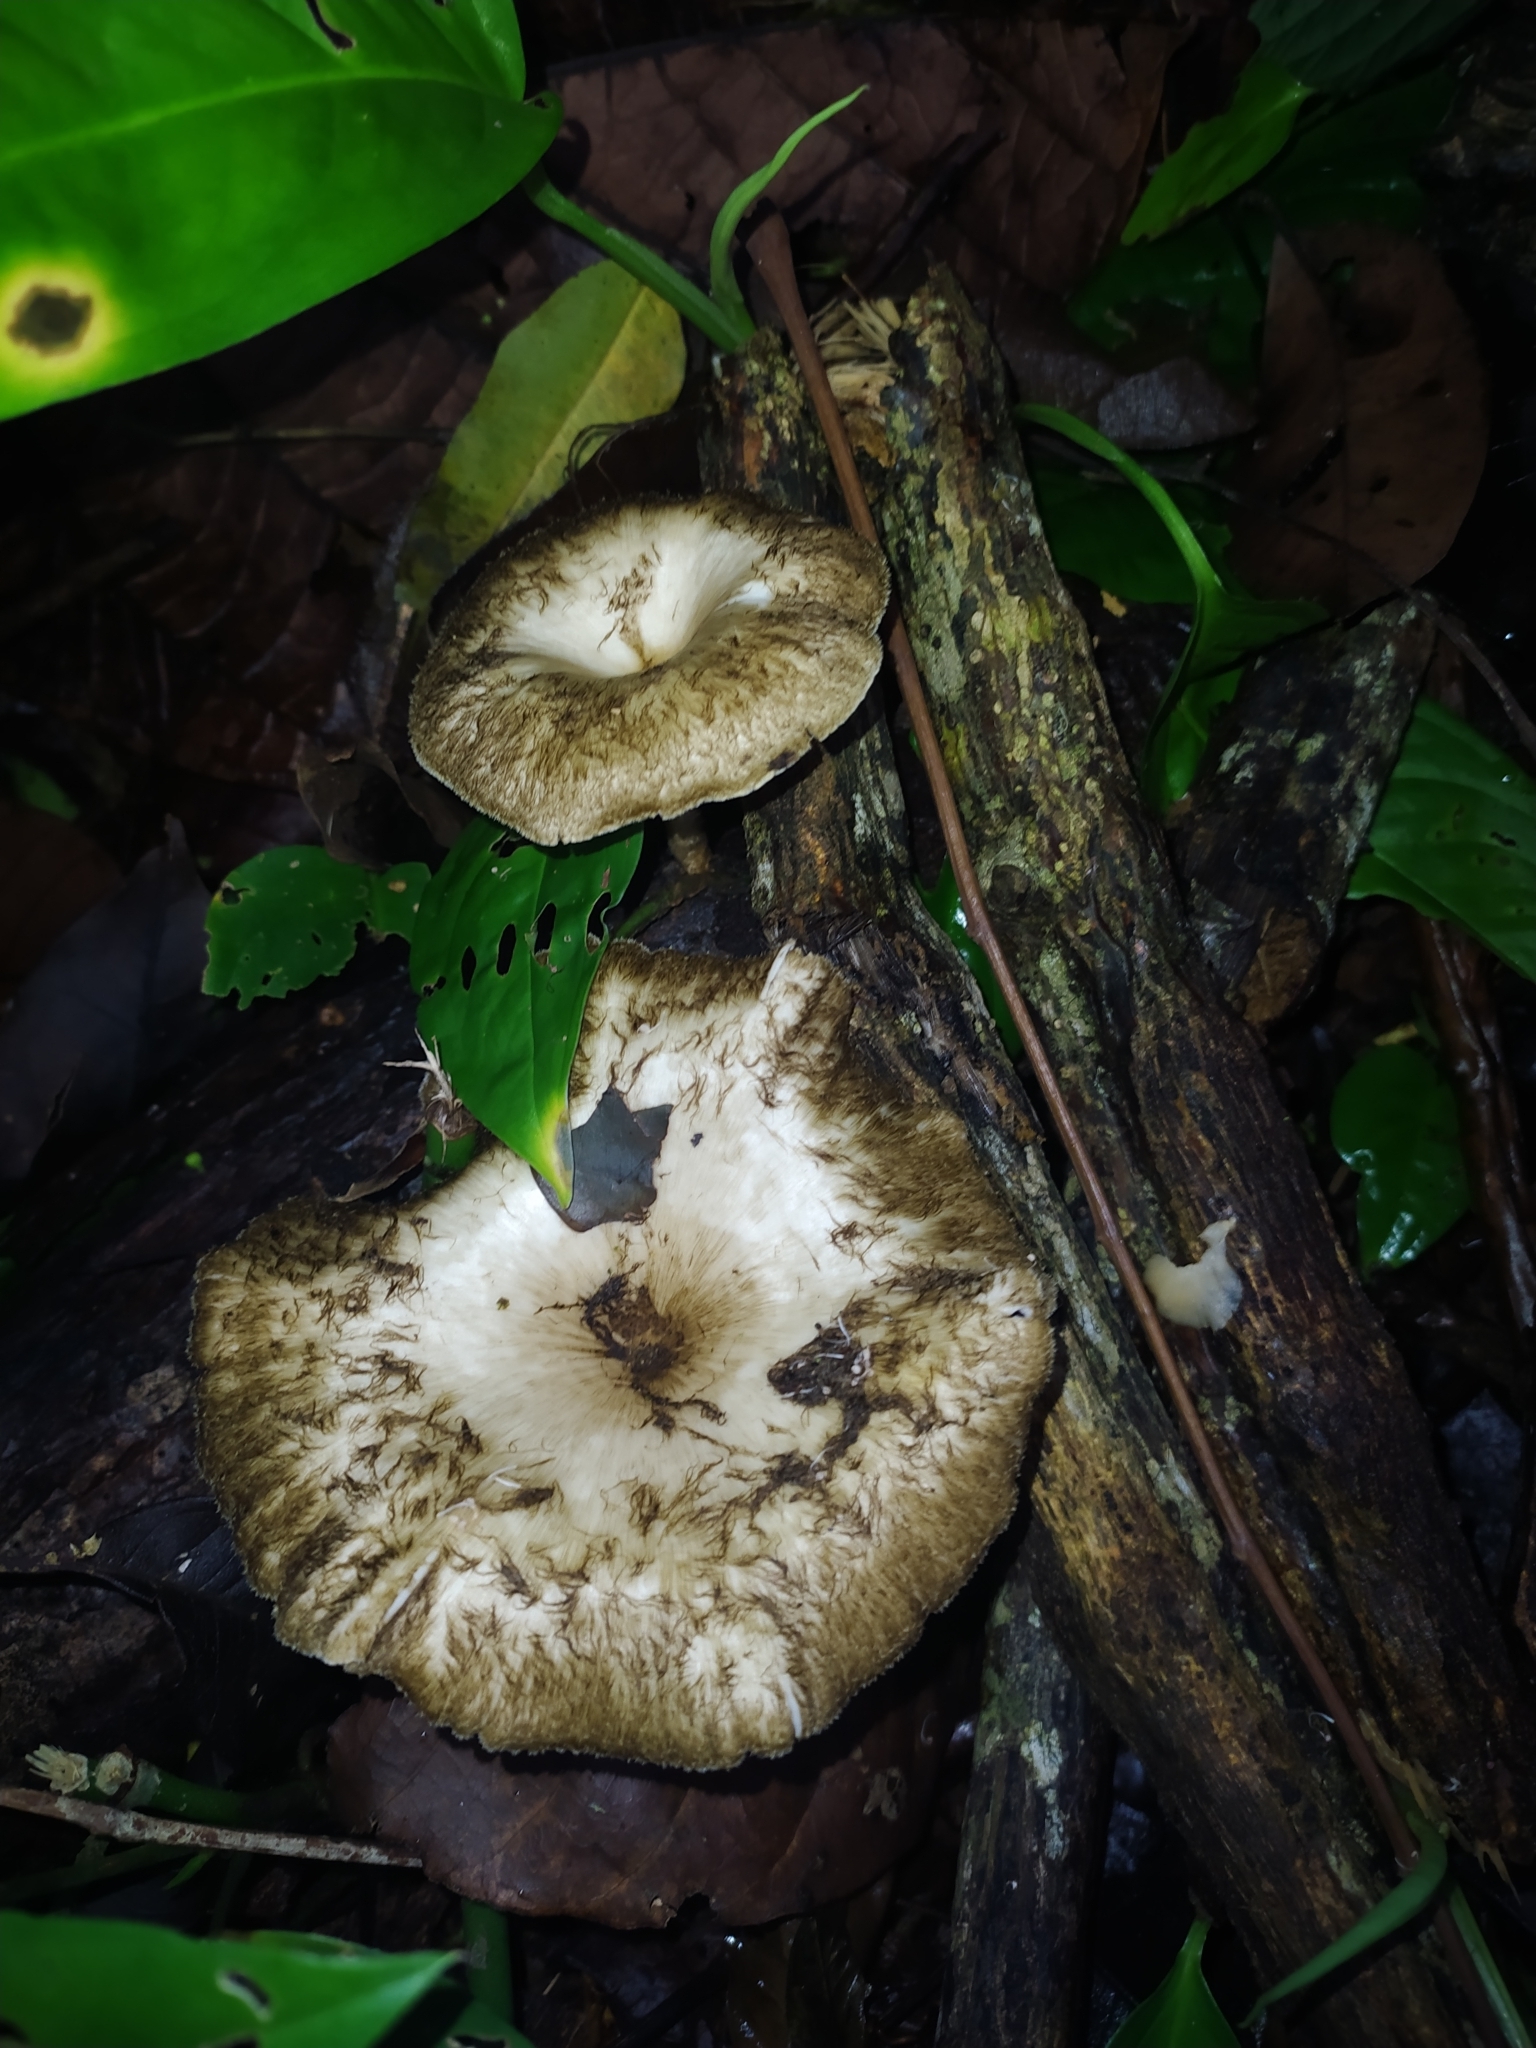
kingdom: Fungi
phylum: Basidiomycota
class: Agaricomycetes
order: Polyporales
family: Polyporaceae
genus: Lentinus
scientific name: Lentinus
